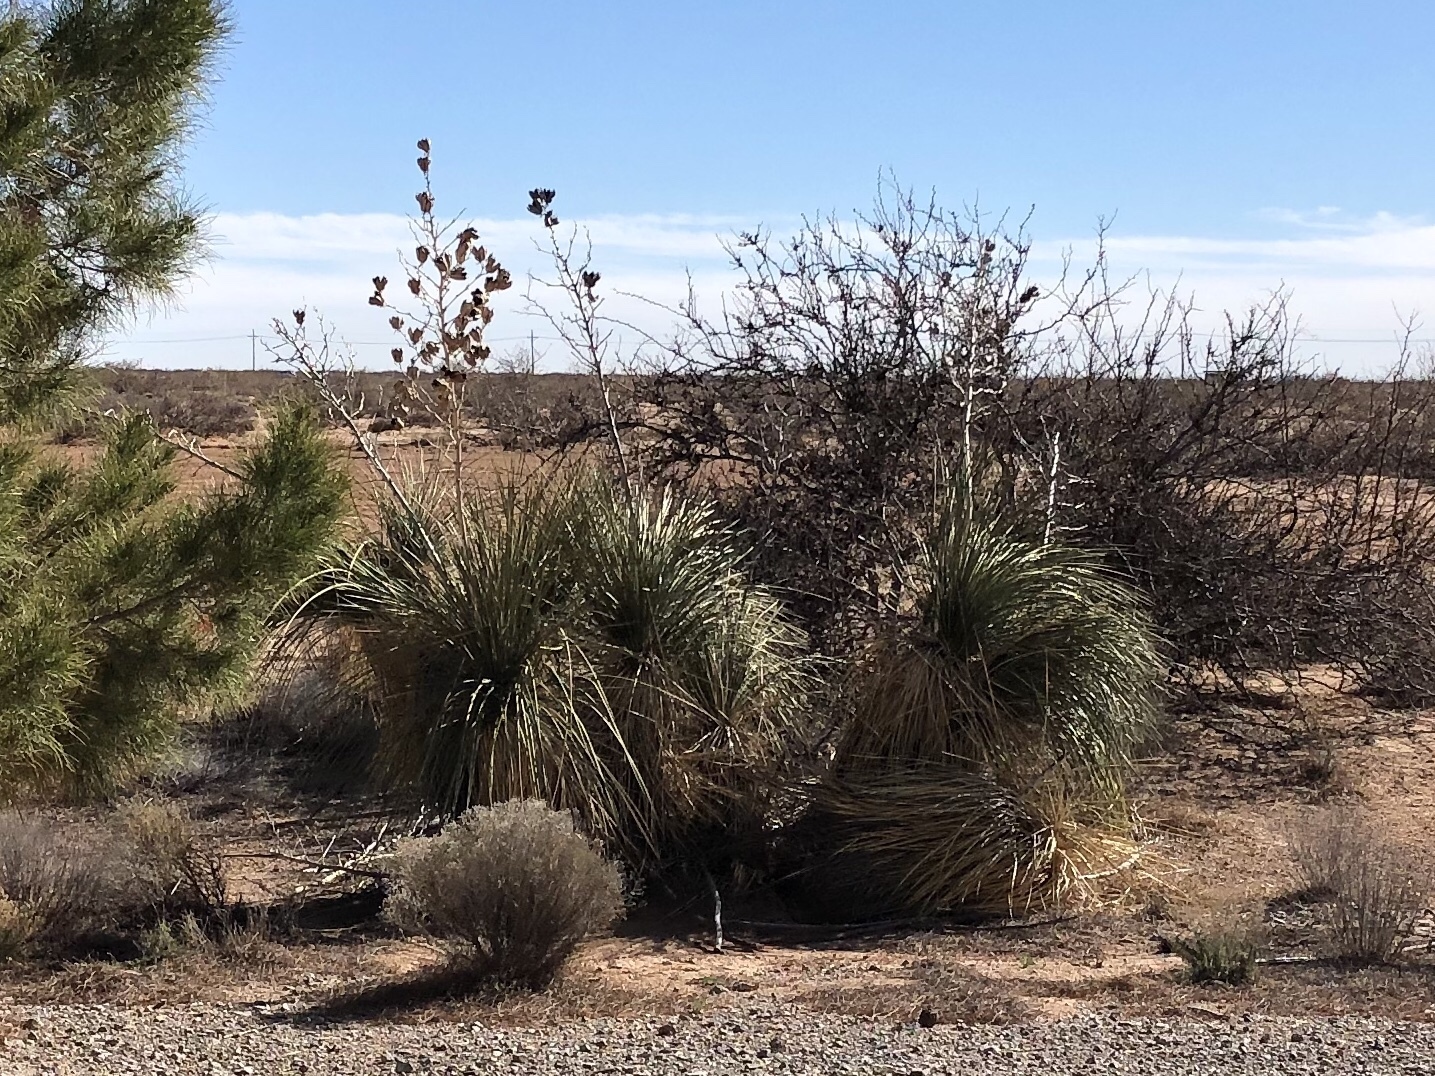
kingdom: Plantae
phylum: Tracheophyta
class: Liliopsida
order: Asparagales
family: Asparagaceae
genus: Yucca
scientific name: Yucca elata
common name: Palmella
